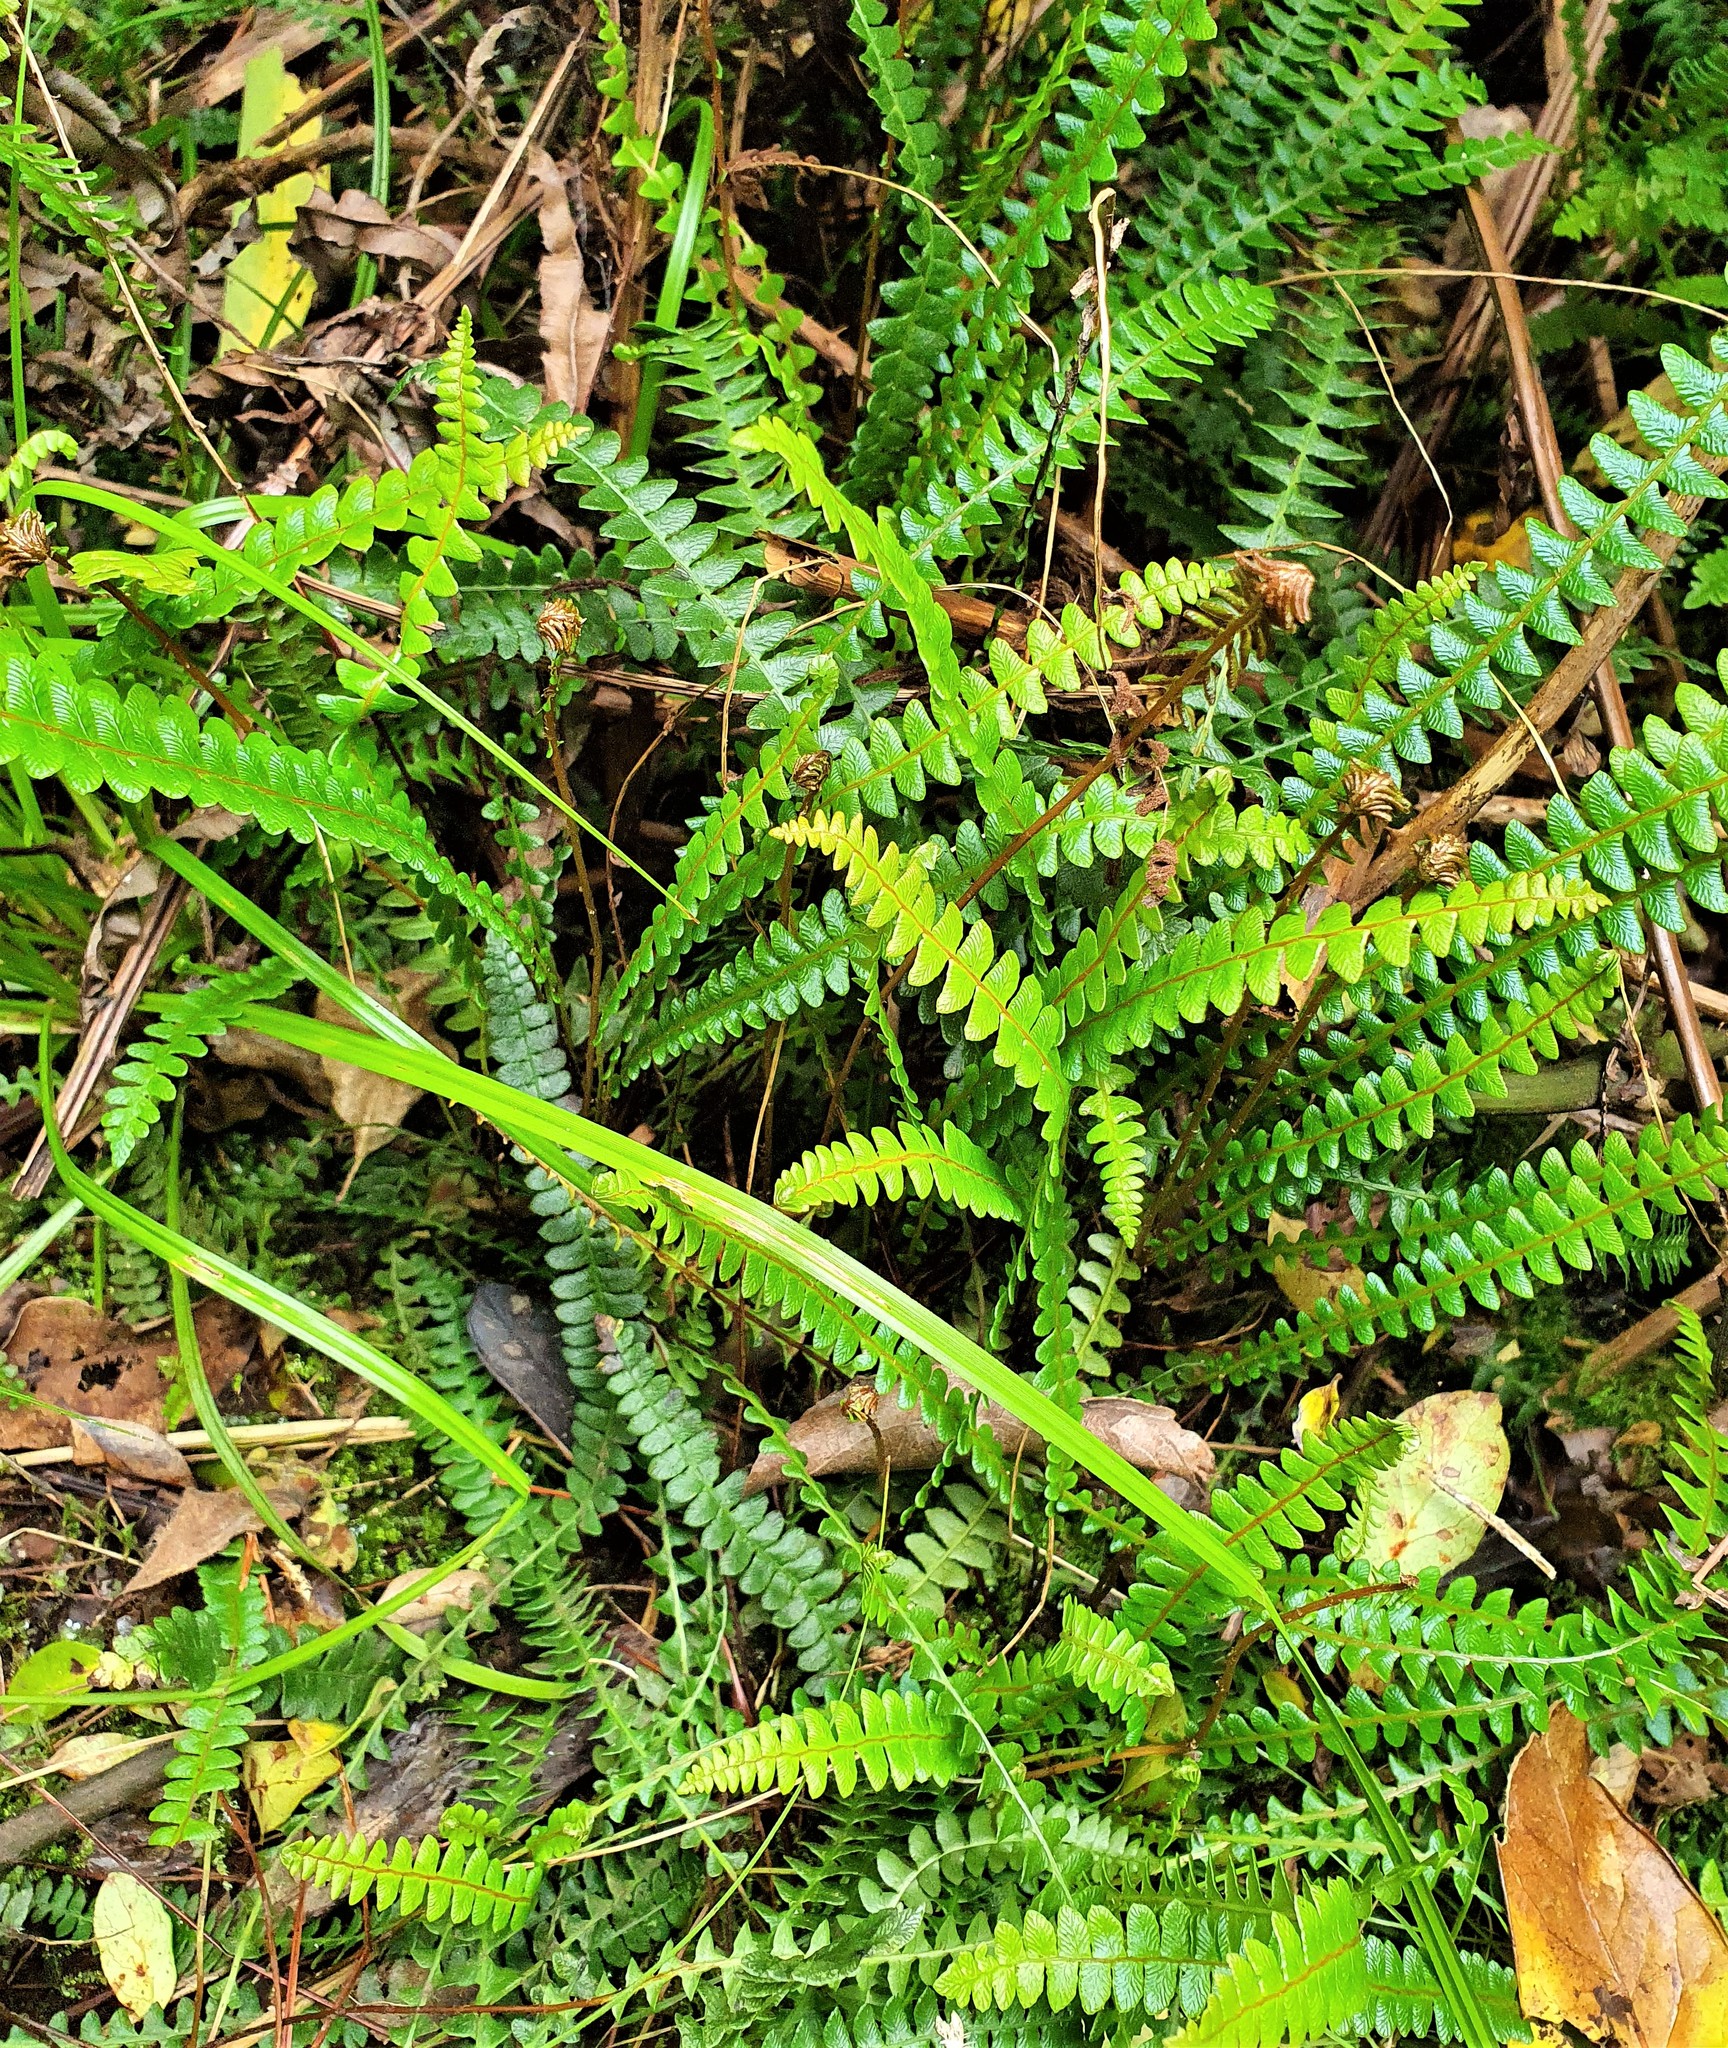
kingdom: Plantae
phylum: Tracheophyta
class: Polypodiopsida
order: Polypodiales
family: Blechnaceae
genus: Austroblechnum
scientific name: Austroblechnum penna-marina
